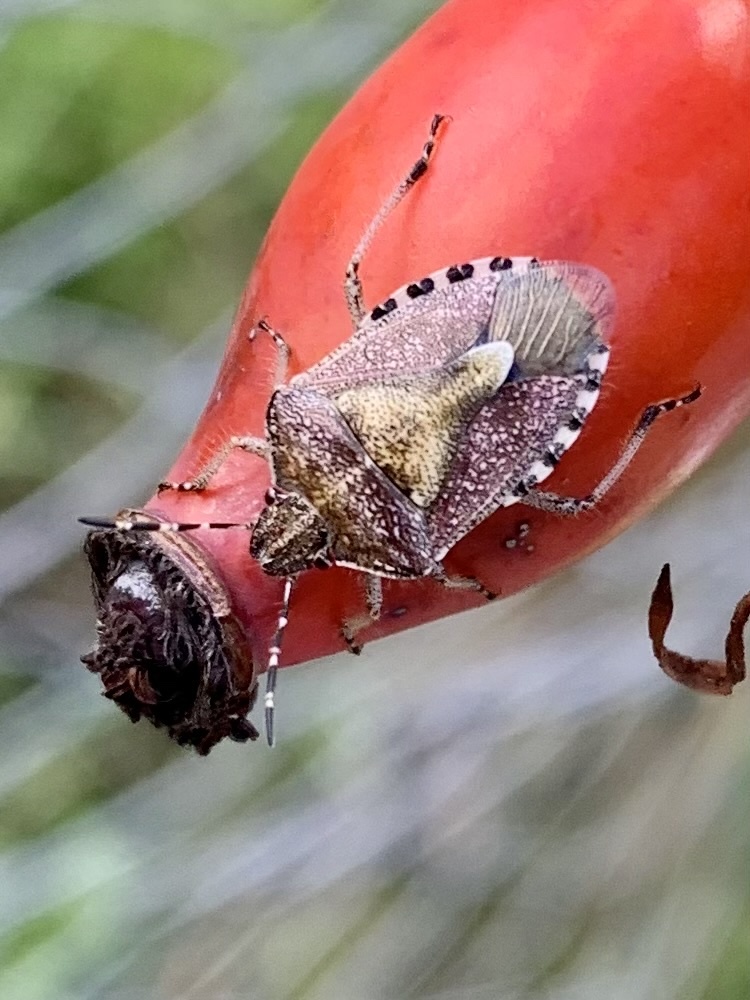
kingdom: Animalia
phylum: Arthropoda
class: Insecta
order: Hemiptera
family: Pentatomidae
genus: Dolycoris
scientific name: Dolycoris baccarum
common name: Sloe bug
